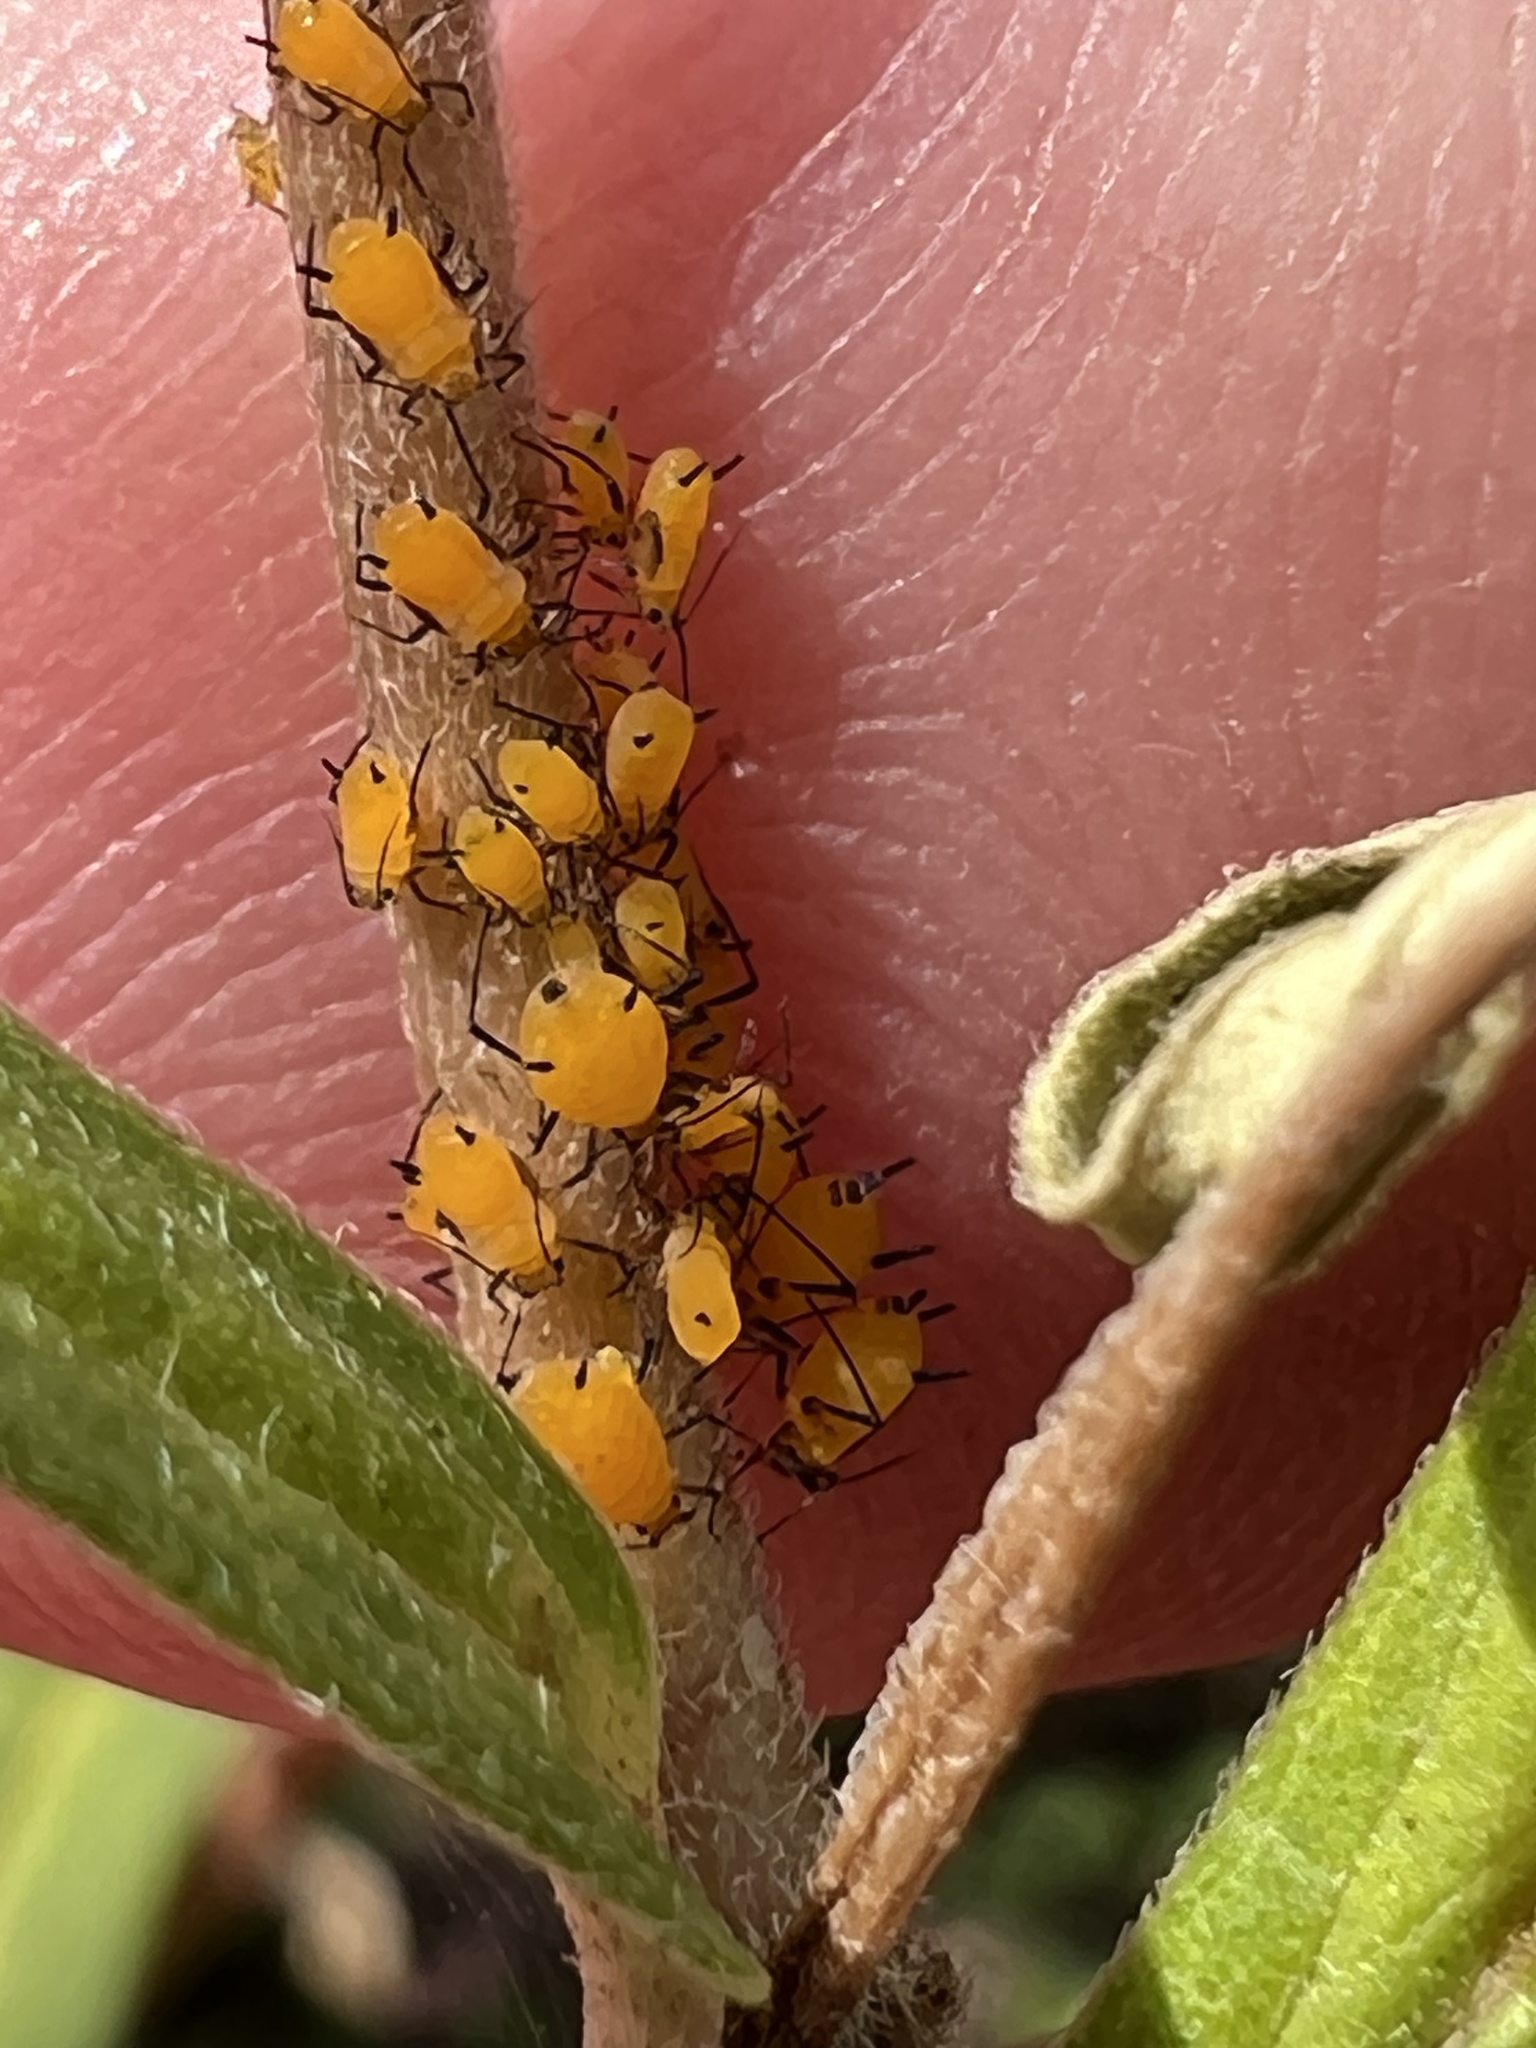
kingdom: Animalia
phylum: Arthropoda
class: Insecta
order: Hemiptera
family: Aphididae
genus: Aphis
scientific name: Aphis nerii
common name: Oleander aphid
